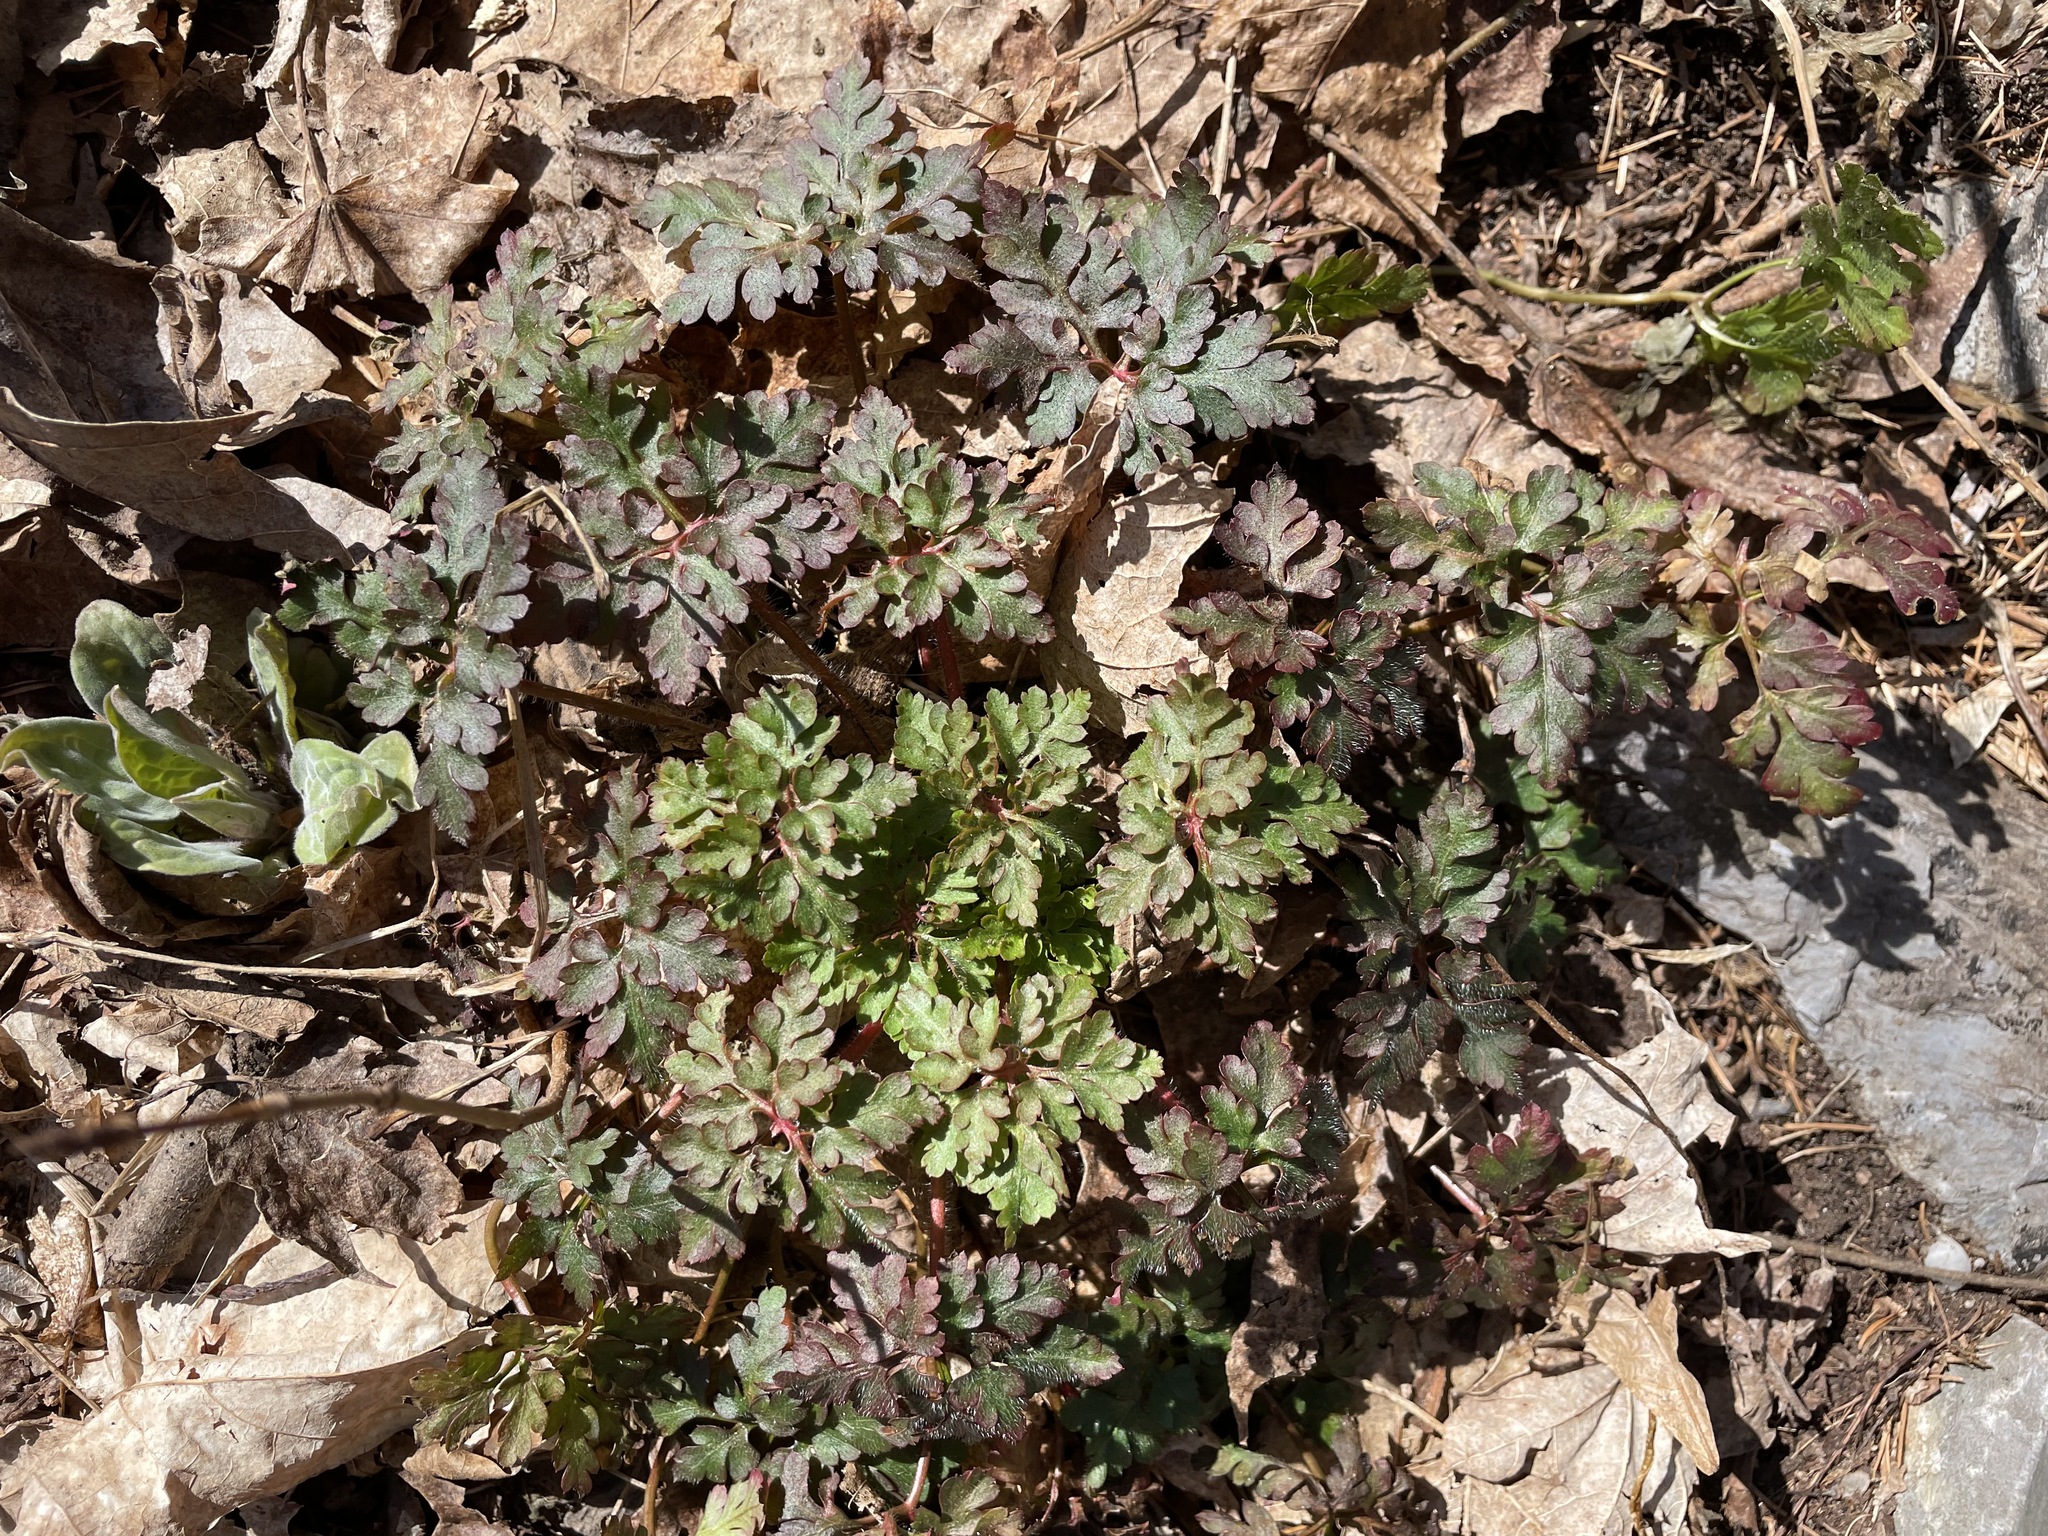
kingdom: Plantae
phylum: Tracheophyta
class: Magnoliopsida
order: Geraniales
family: Geraniaceae
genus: Geranium
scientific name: Geranium robertianum
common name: Herb-robert
